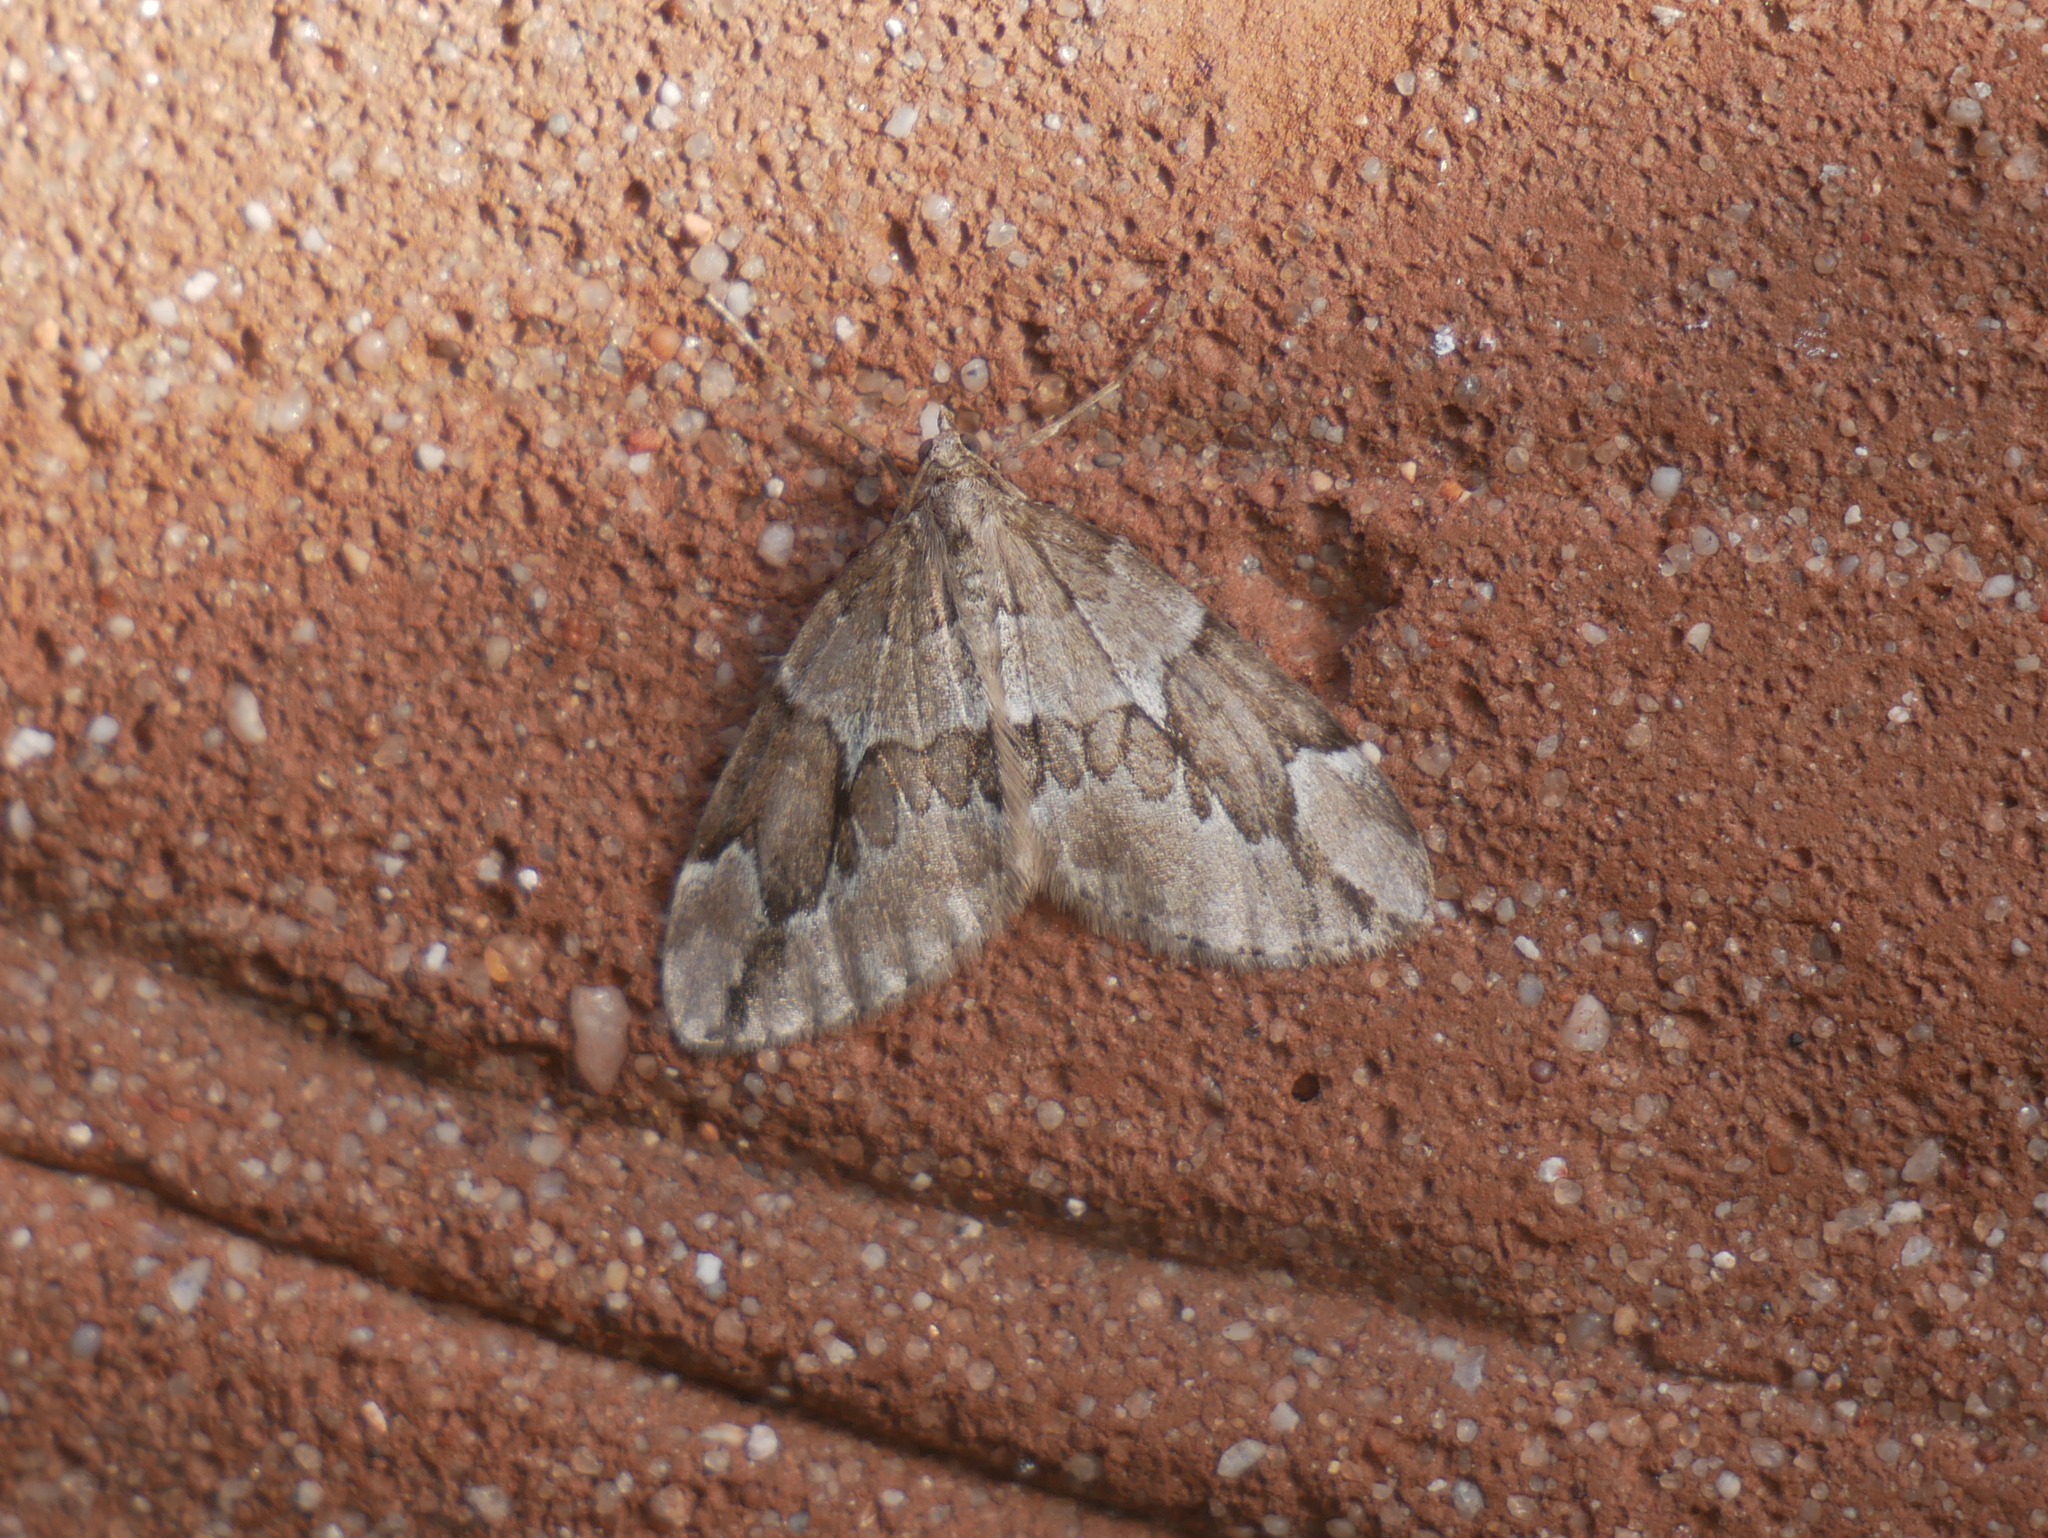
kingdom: Animalia
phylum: Arthropoda
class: Insecta
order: Lepidoptera
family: Geometridae
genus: Thera
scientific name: Thera juniperata
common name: Juniper carpet
